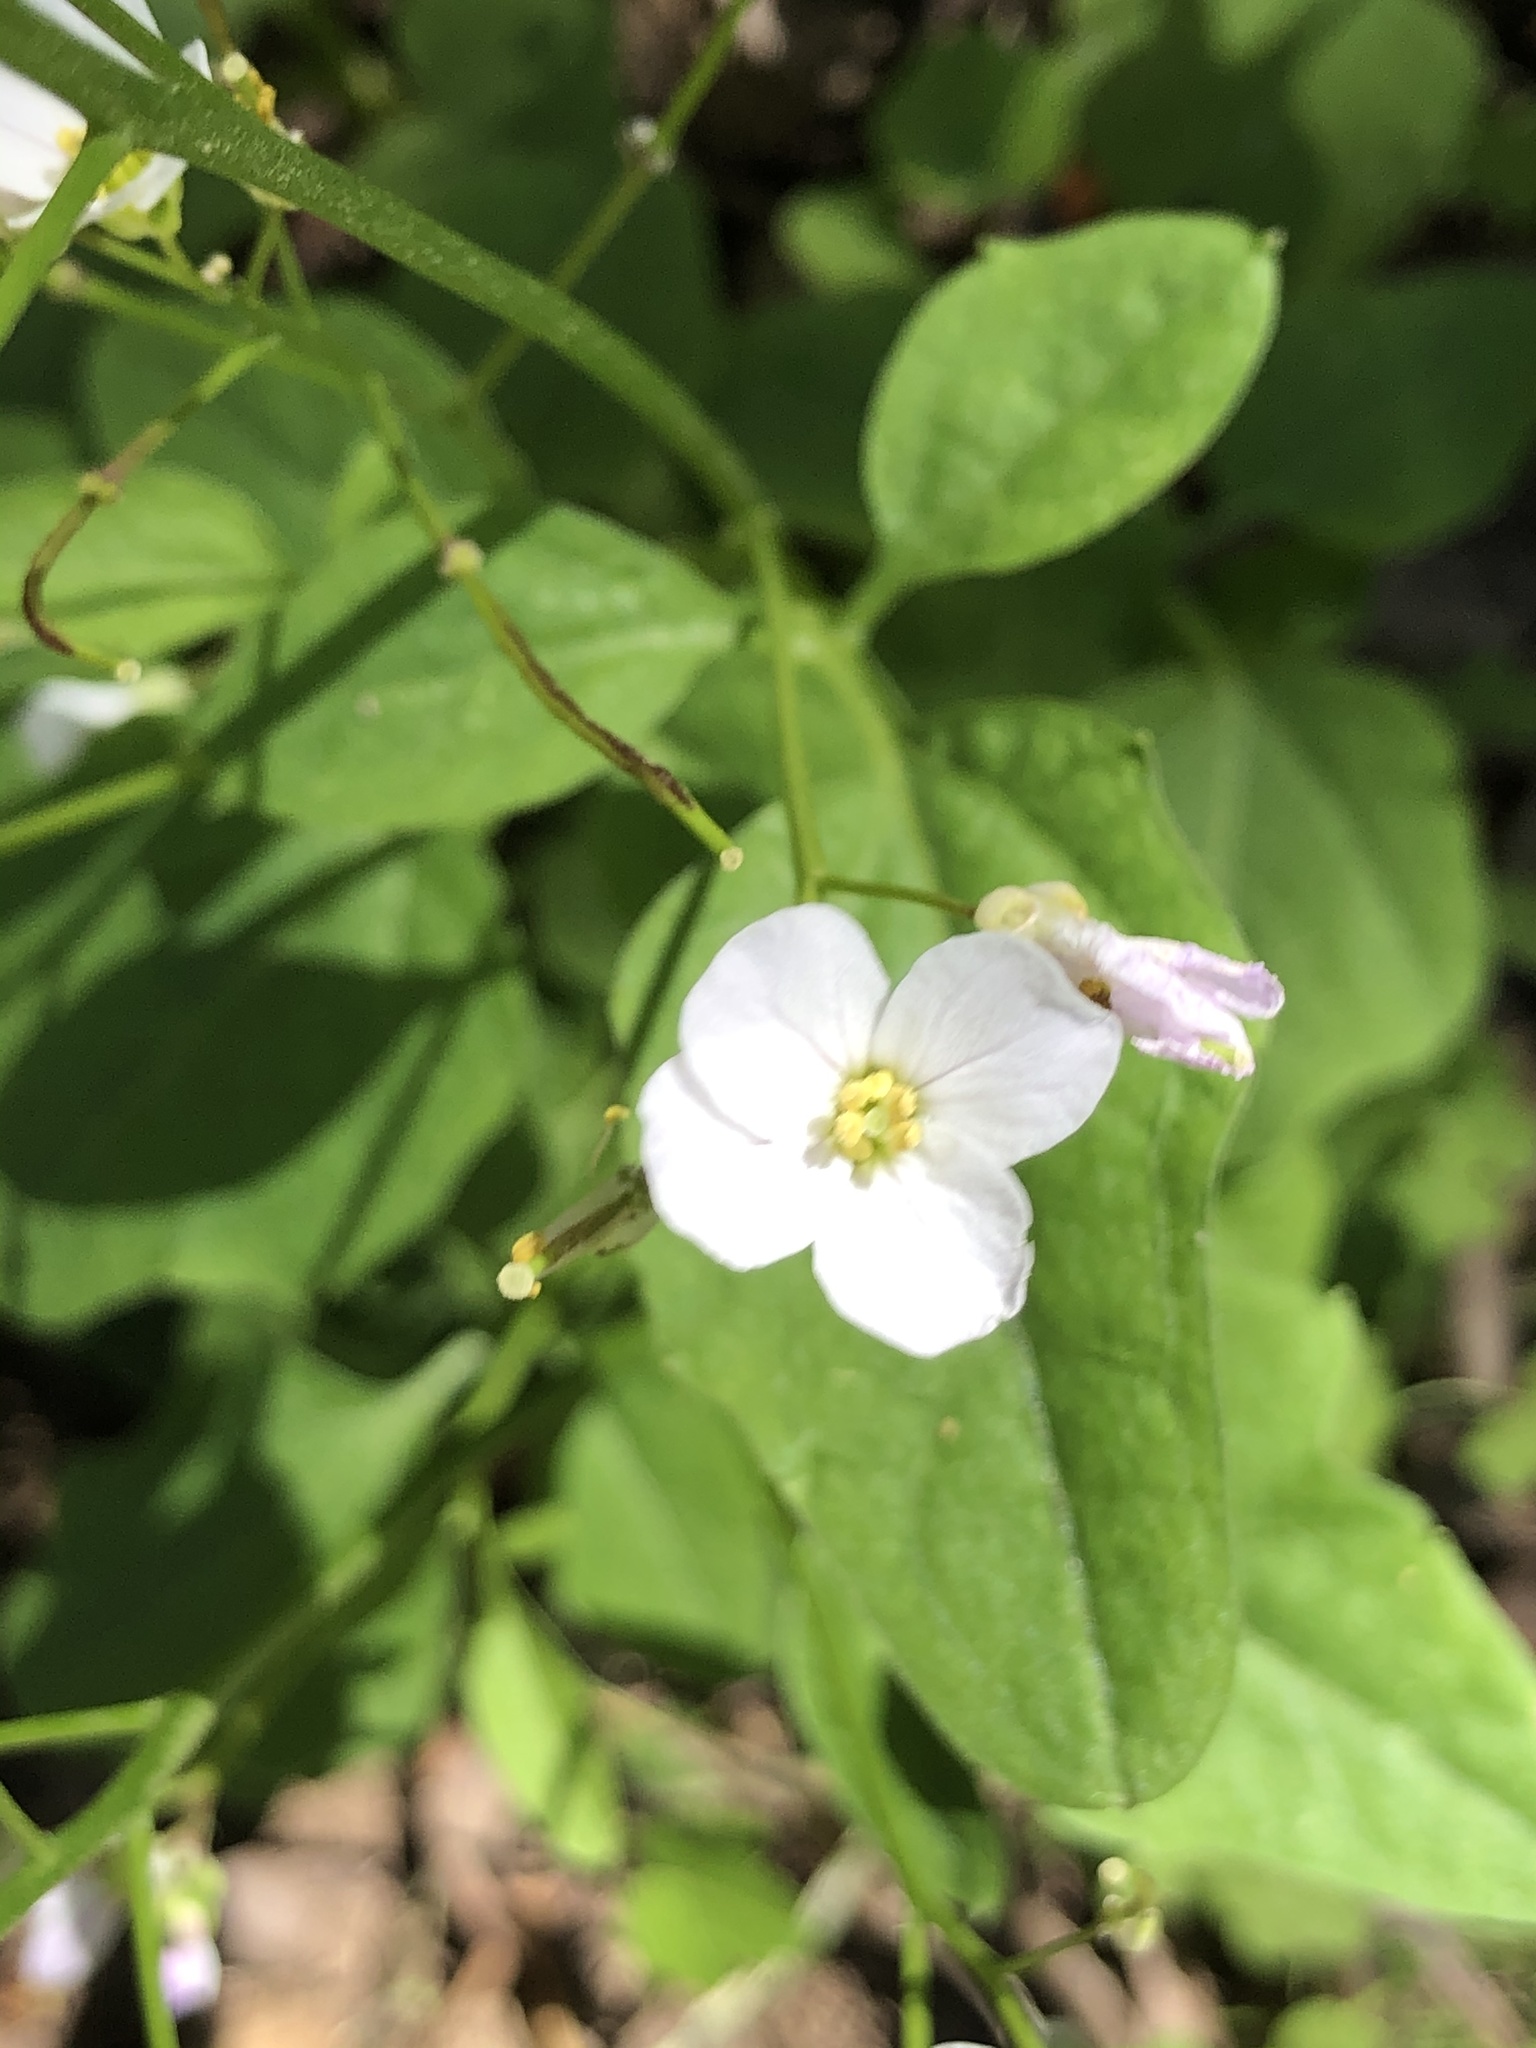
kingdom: Plantae
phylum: Tracheophyta
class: Magnoliopsida
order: Brassicales
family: Brassicaceae
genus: Cardamine
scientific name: Cardamine californica
